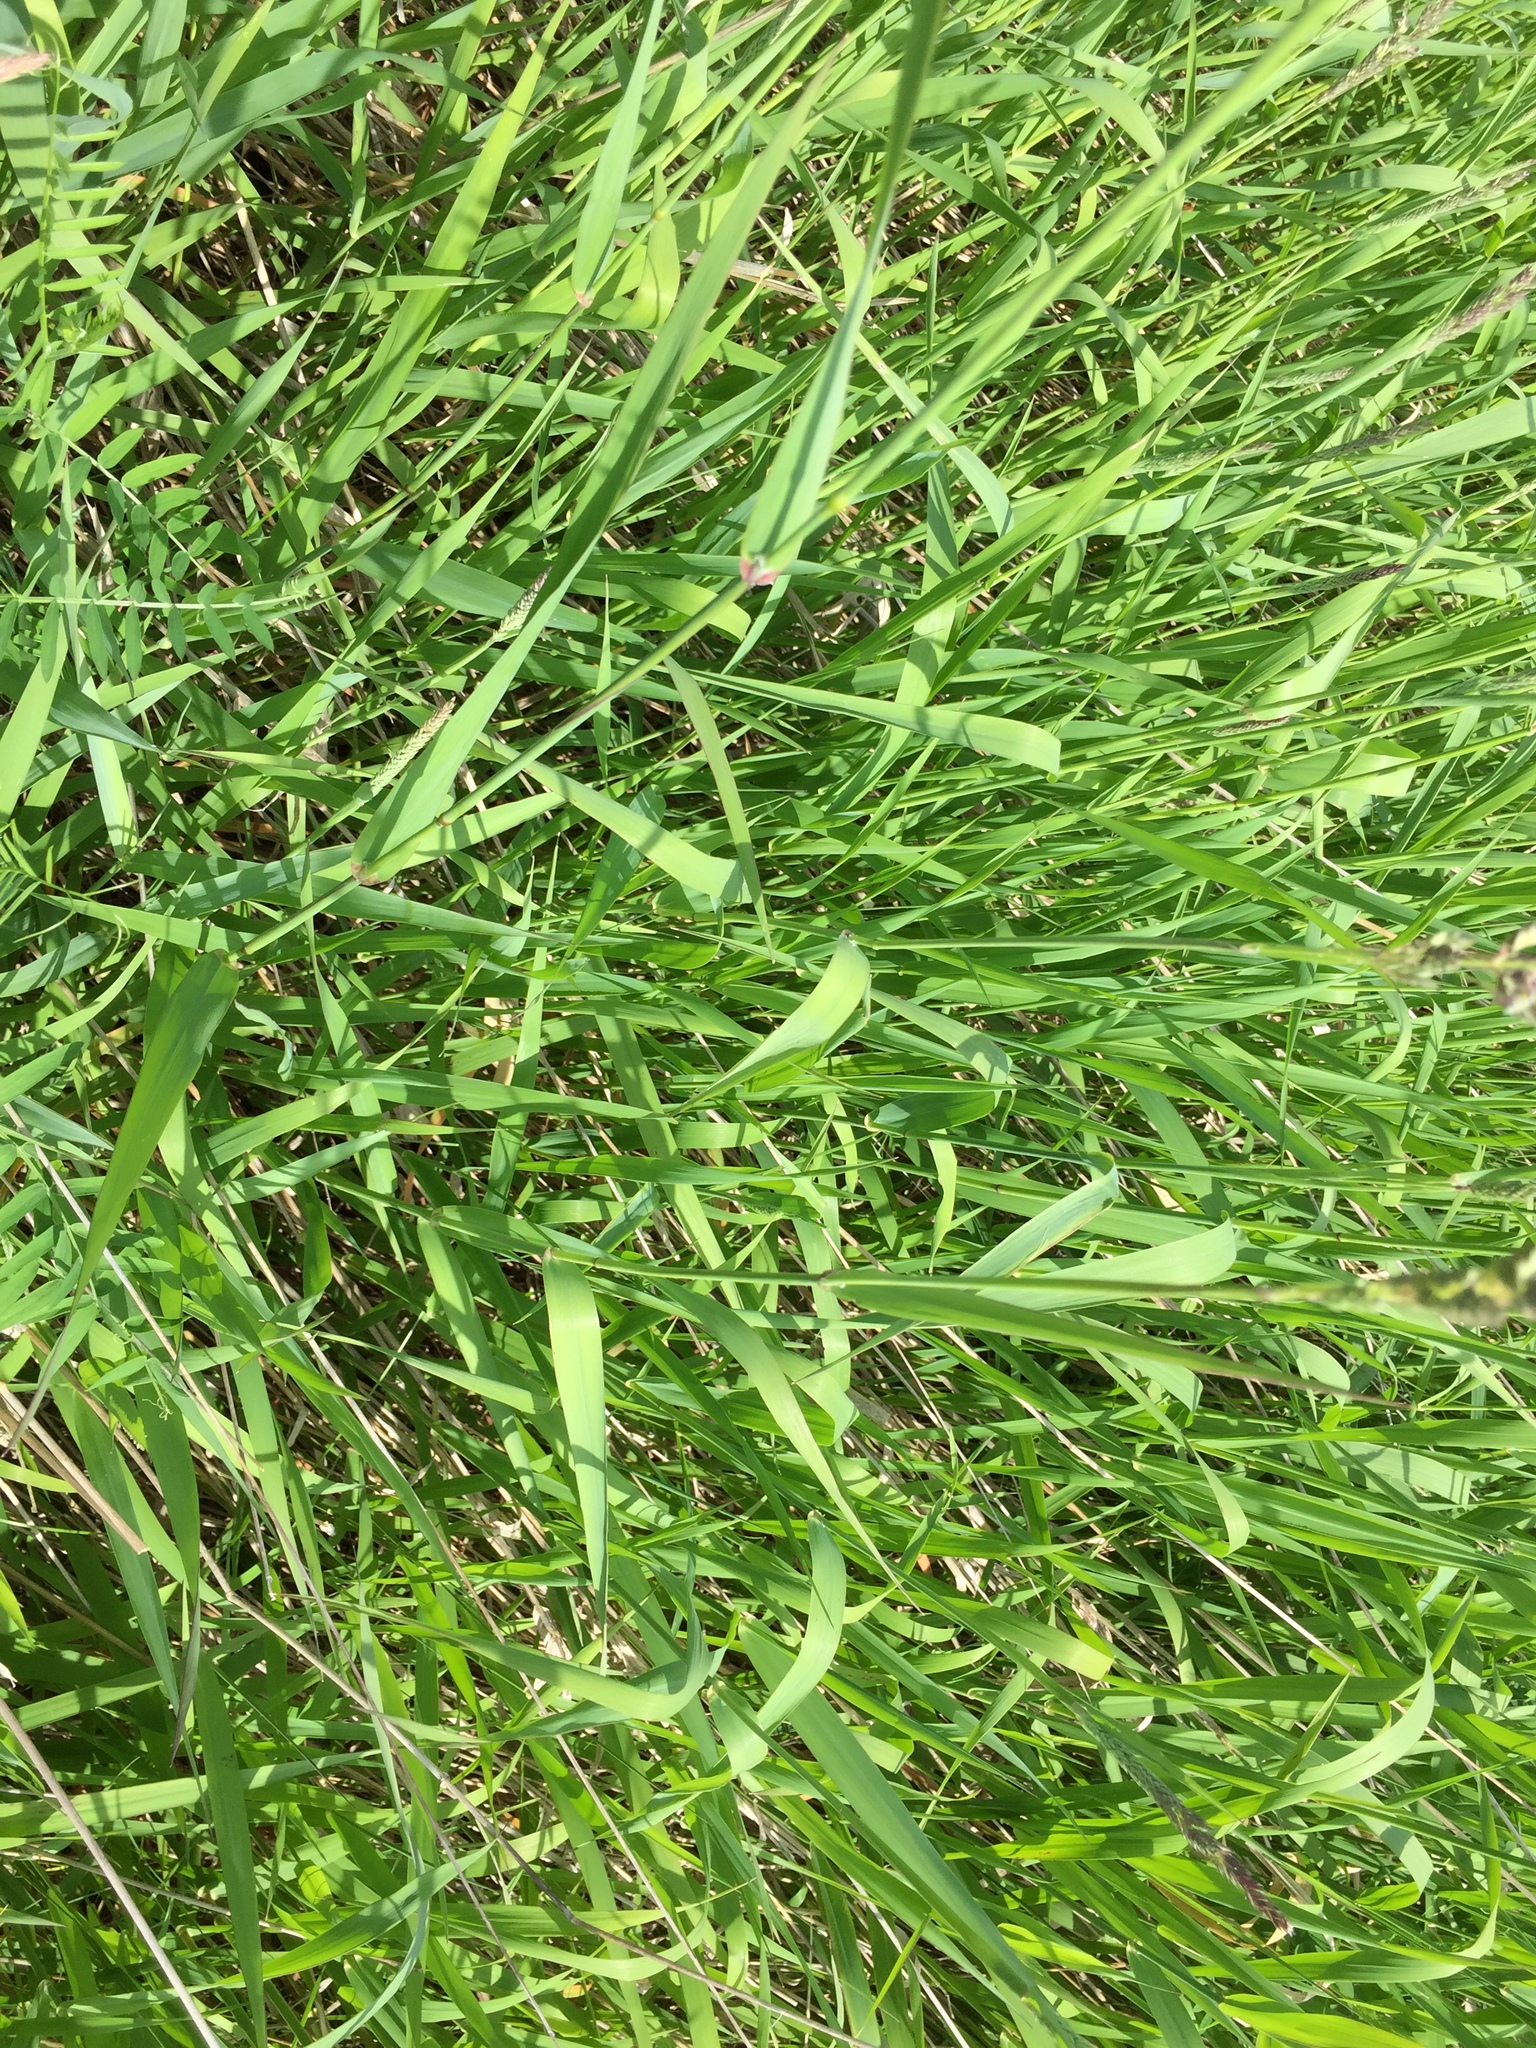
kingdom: Plantae
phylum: Tracheophyta
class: Liliopsida
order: Poales
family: Poaceae
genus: Phalaris
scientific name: Phalaris arundinacea
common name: Reed canary-grass
